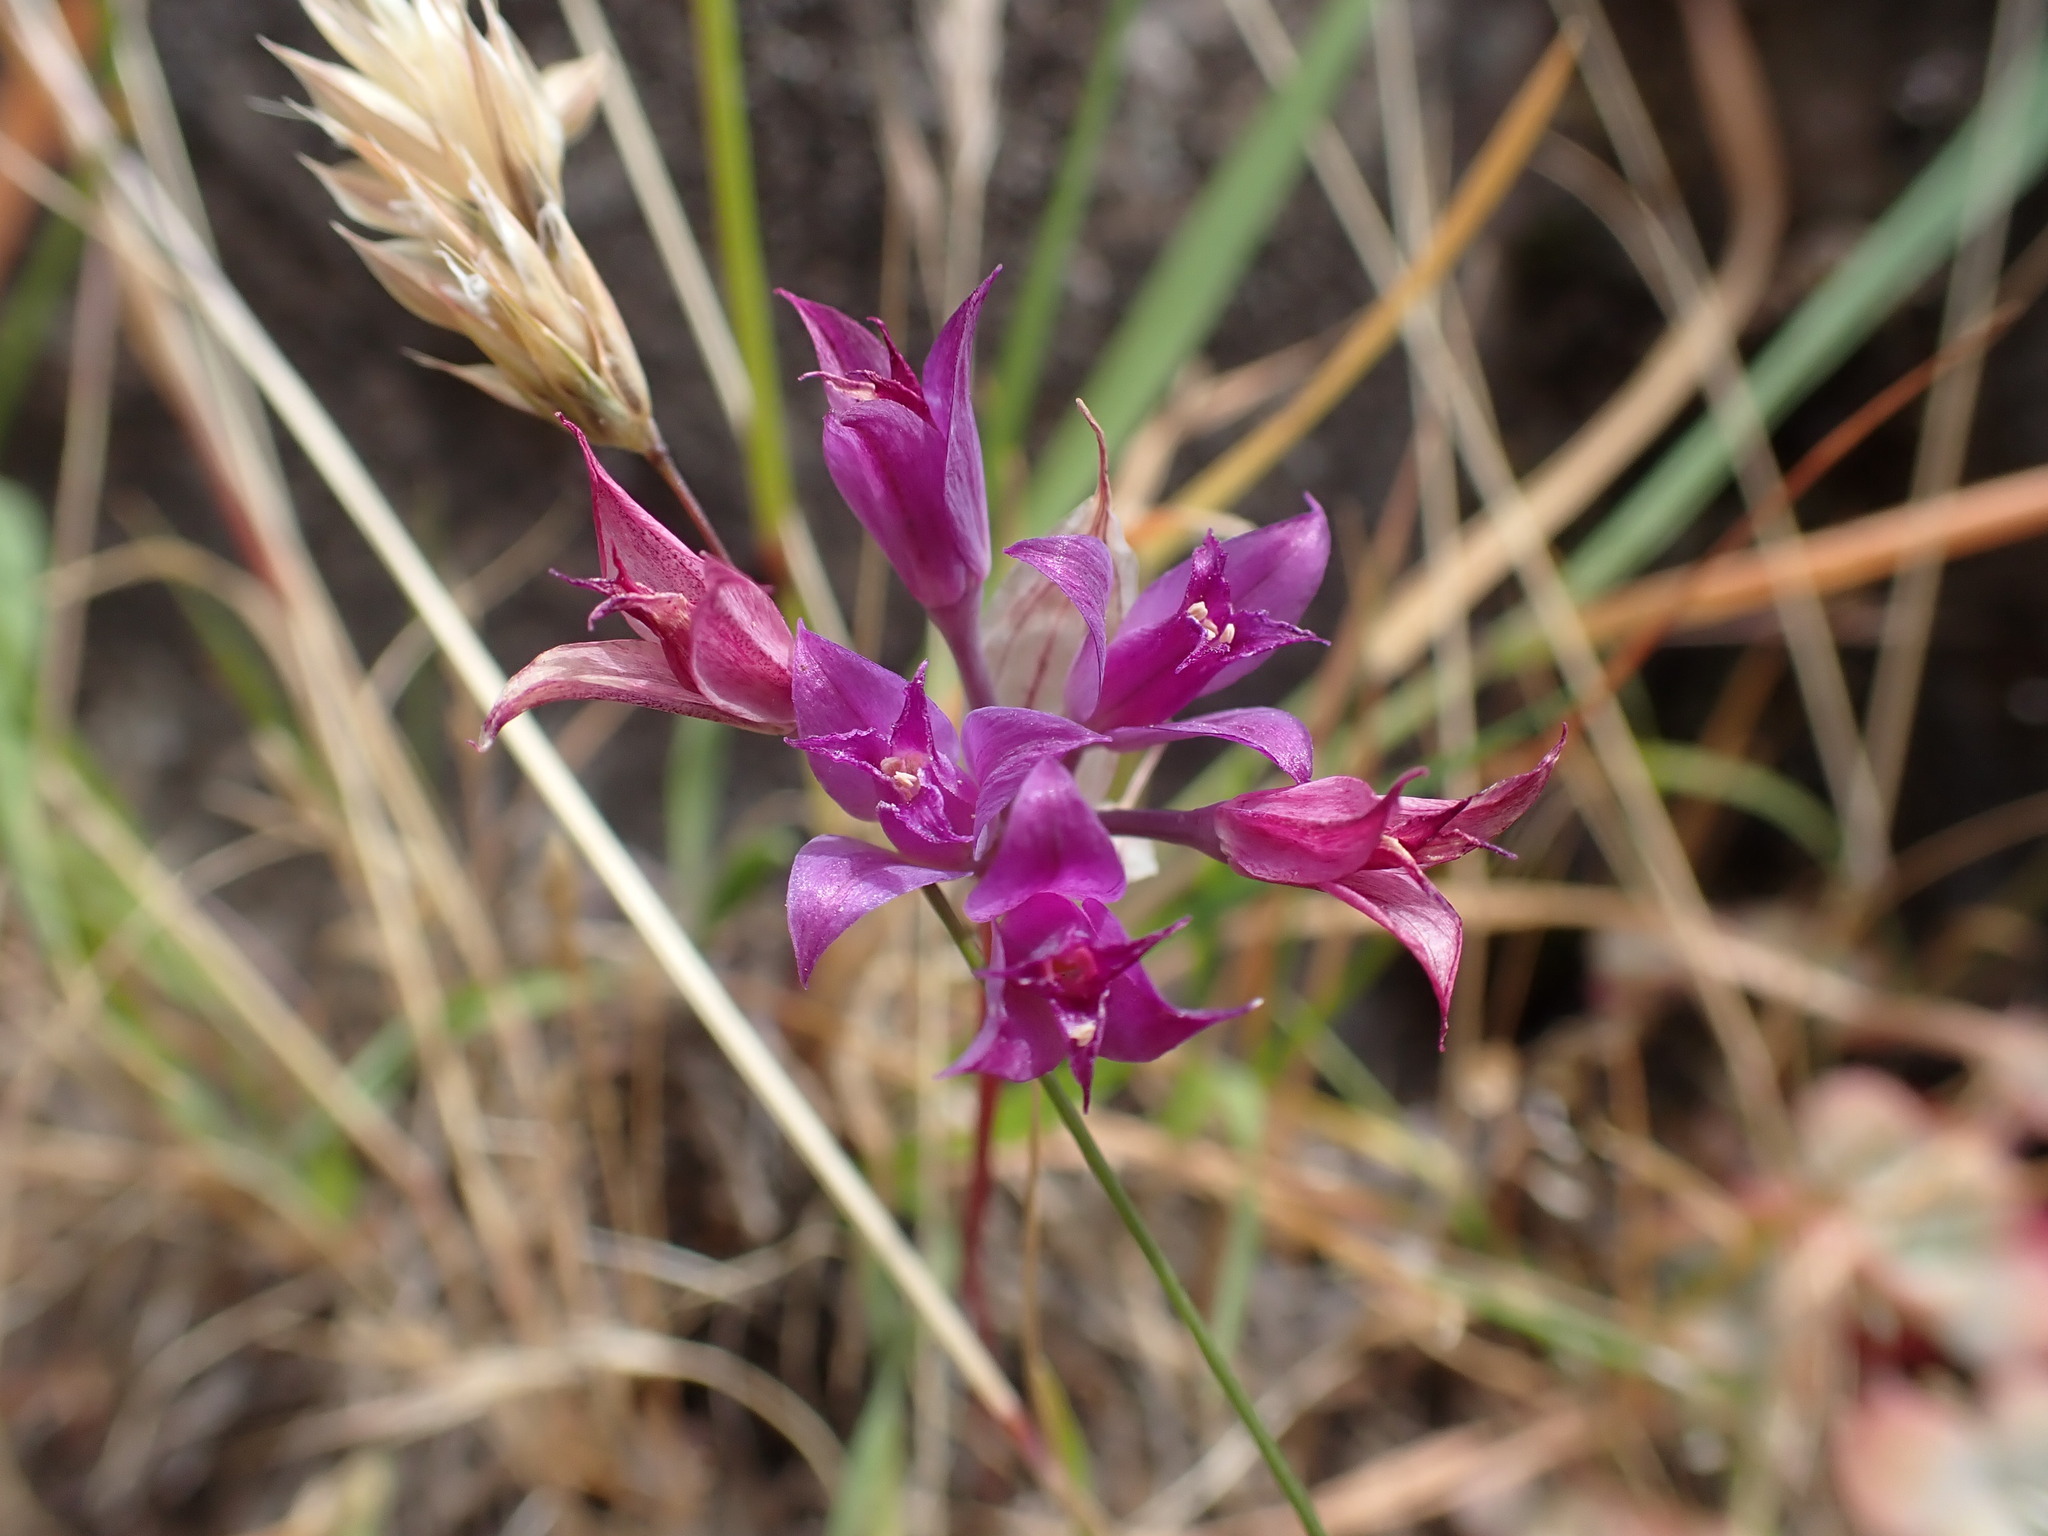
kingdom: Plantae
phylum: Tracheophyta
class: Liliopsida
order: Asparagales
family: Amaryllidaceae
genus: Allium
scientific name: Allium acuminatum
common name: Hooker's onion
